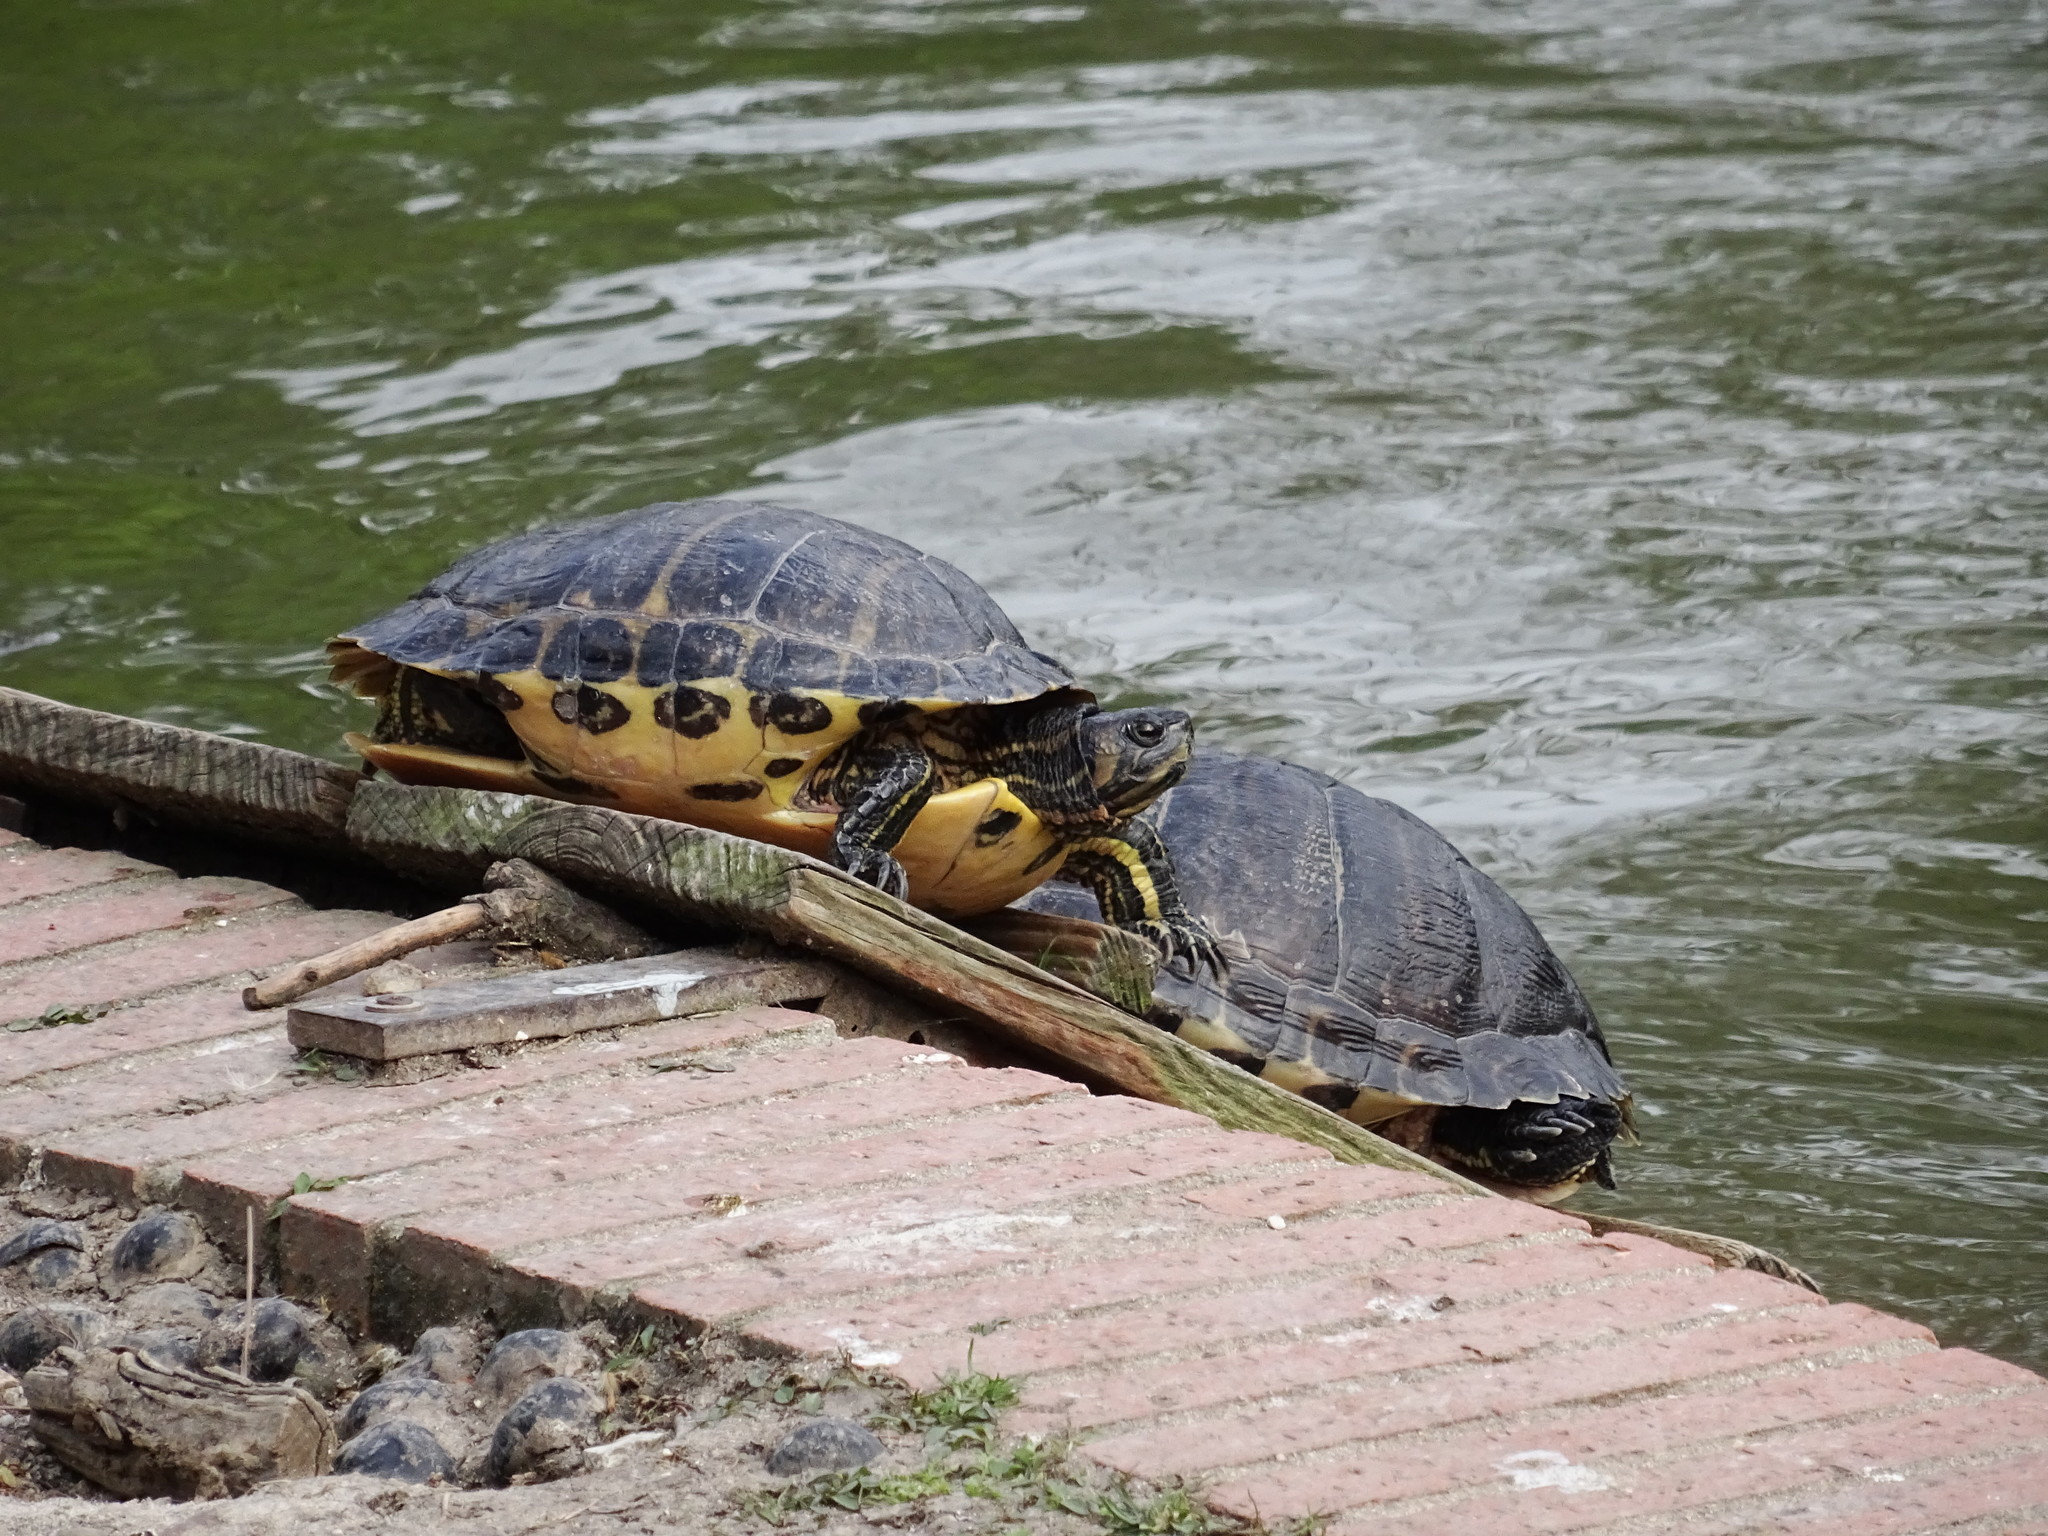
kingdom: Animalia
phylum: Chordata
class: Testudines
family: Emydidae
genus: Trachemys
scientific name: Trachemys scripta
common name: Slider
